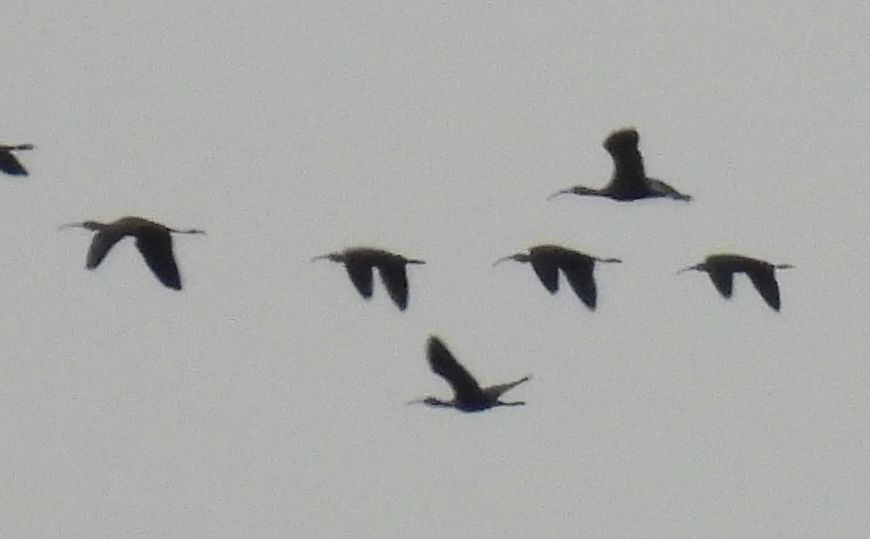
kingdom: Animalia
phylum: Chordata
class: Aves
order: Pelecaniformes
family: Threskiornithidae
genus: Plegadis
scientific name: Plegadis
